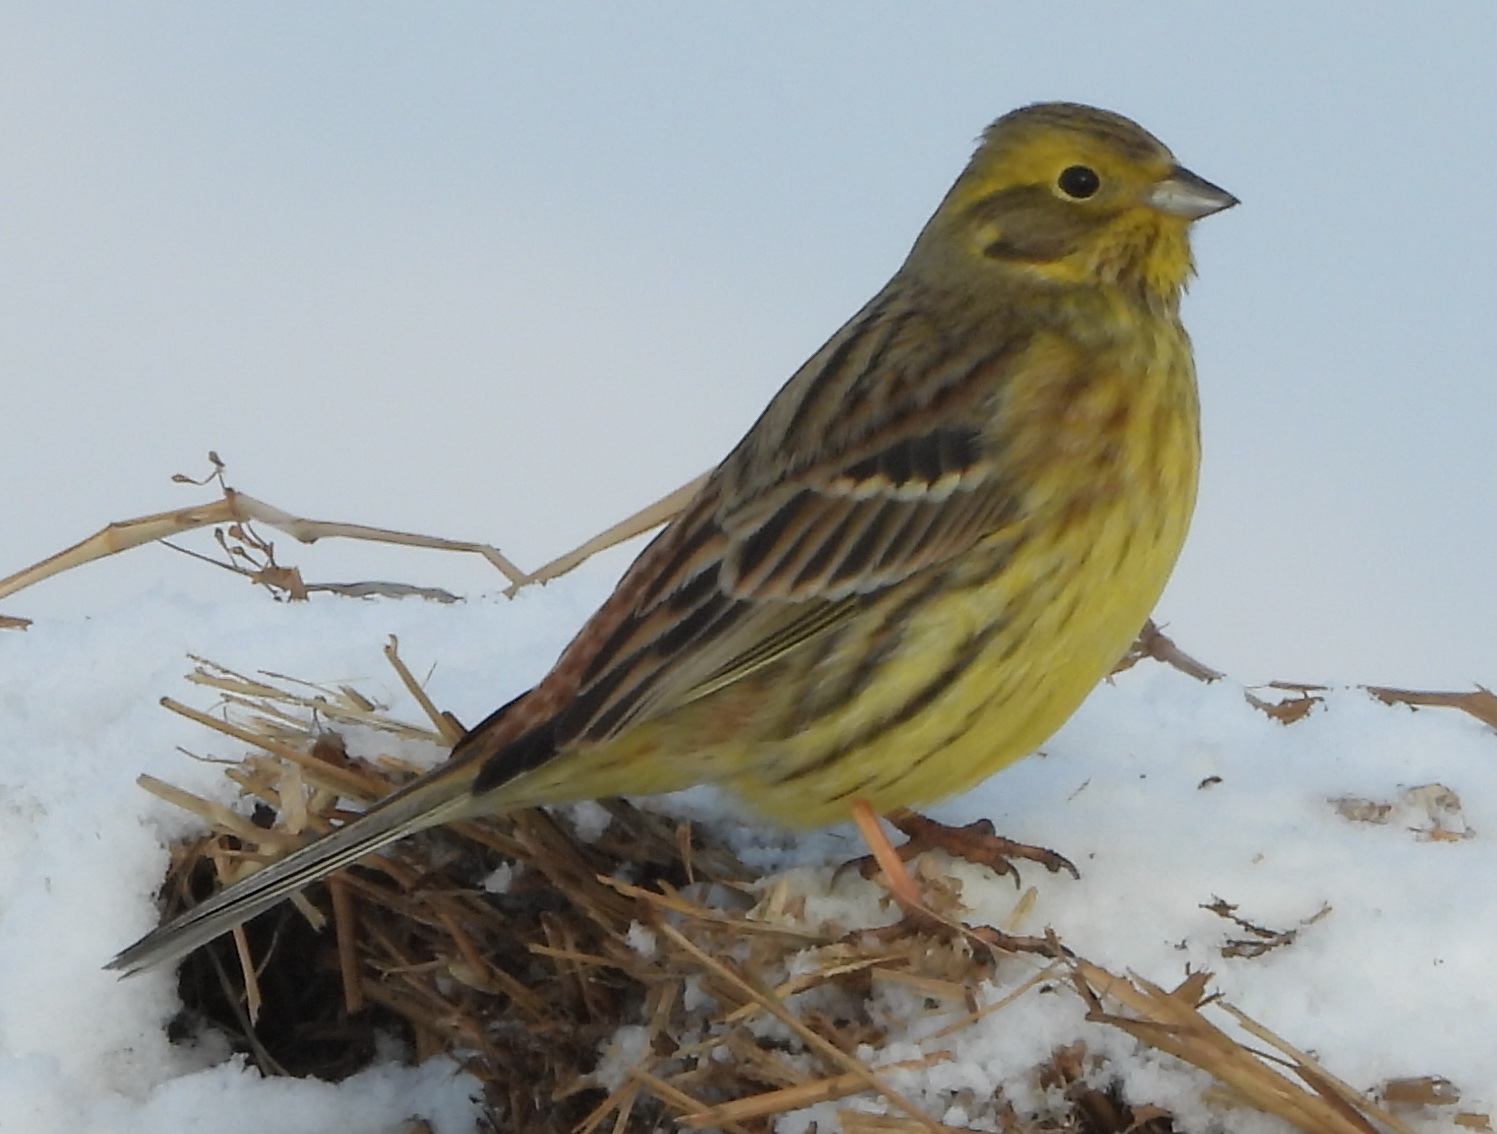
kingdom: Animalia
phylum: Chordata
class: Aves
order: Passeriformes
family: Emberizidae
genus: Emberiza
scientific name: Emberiza citrinella
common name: Yellowhammer
